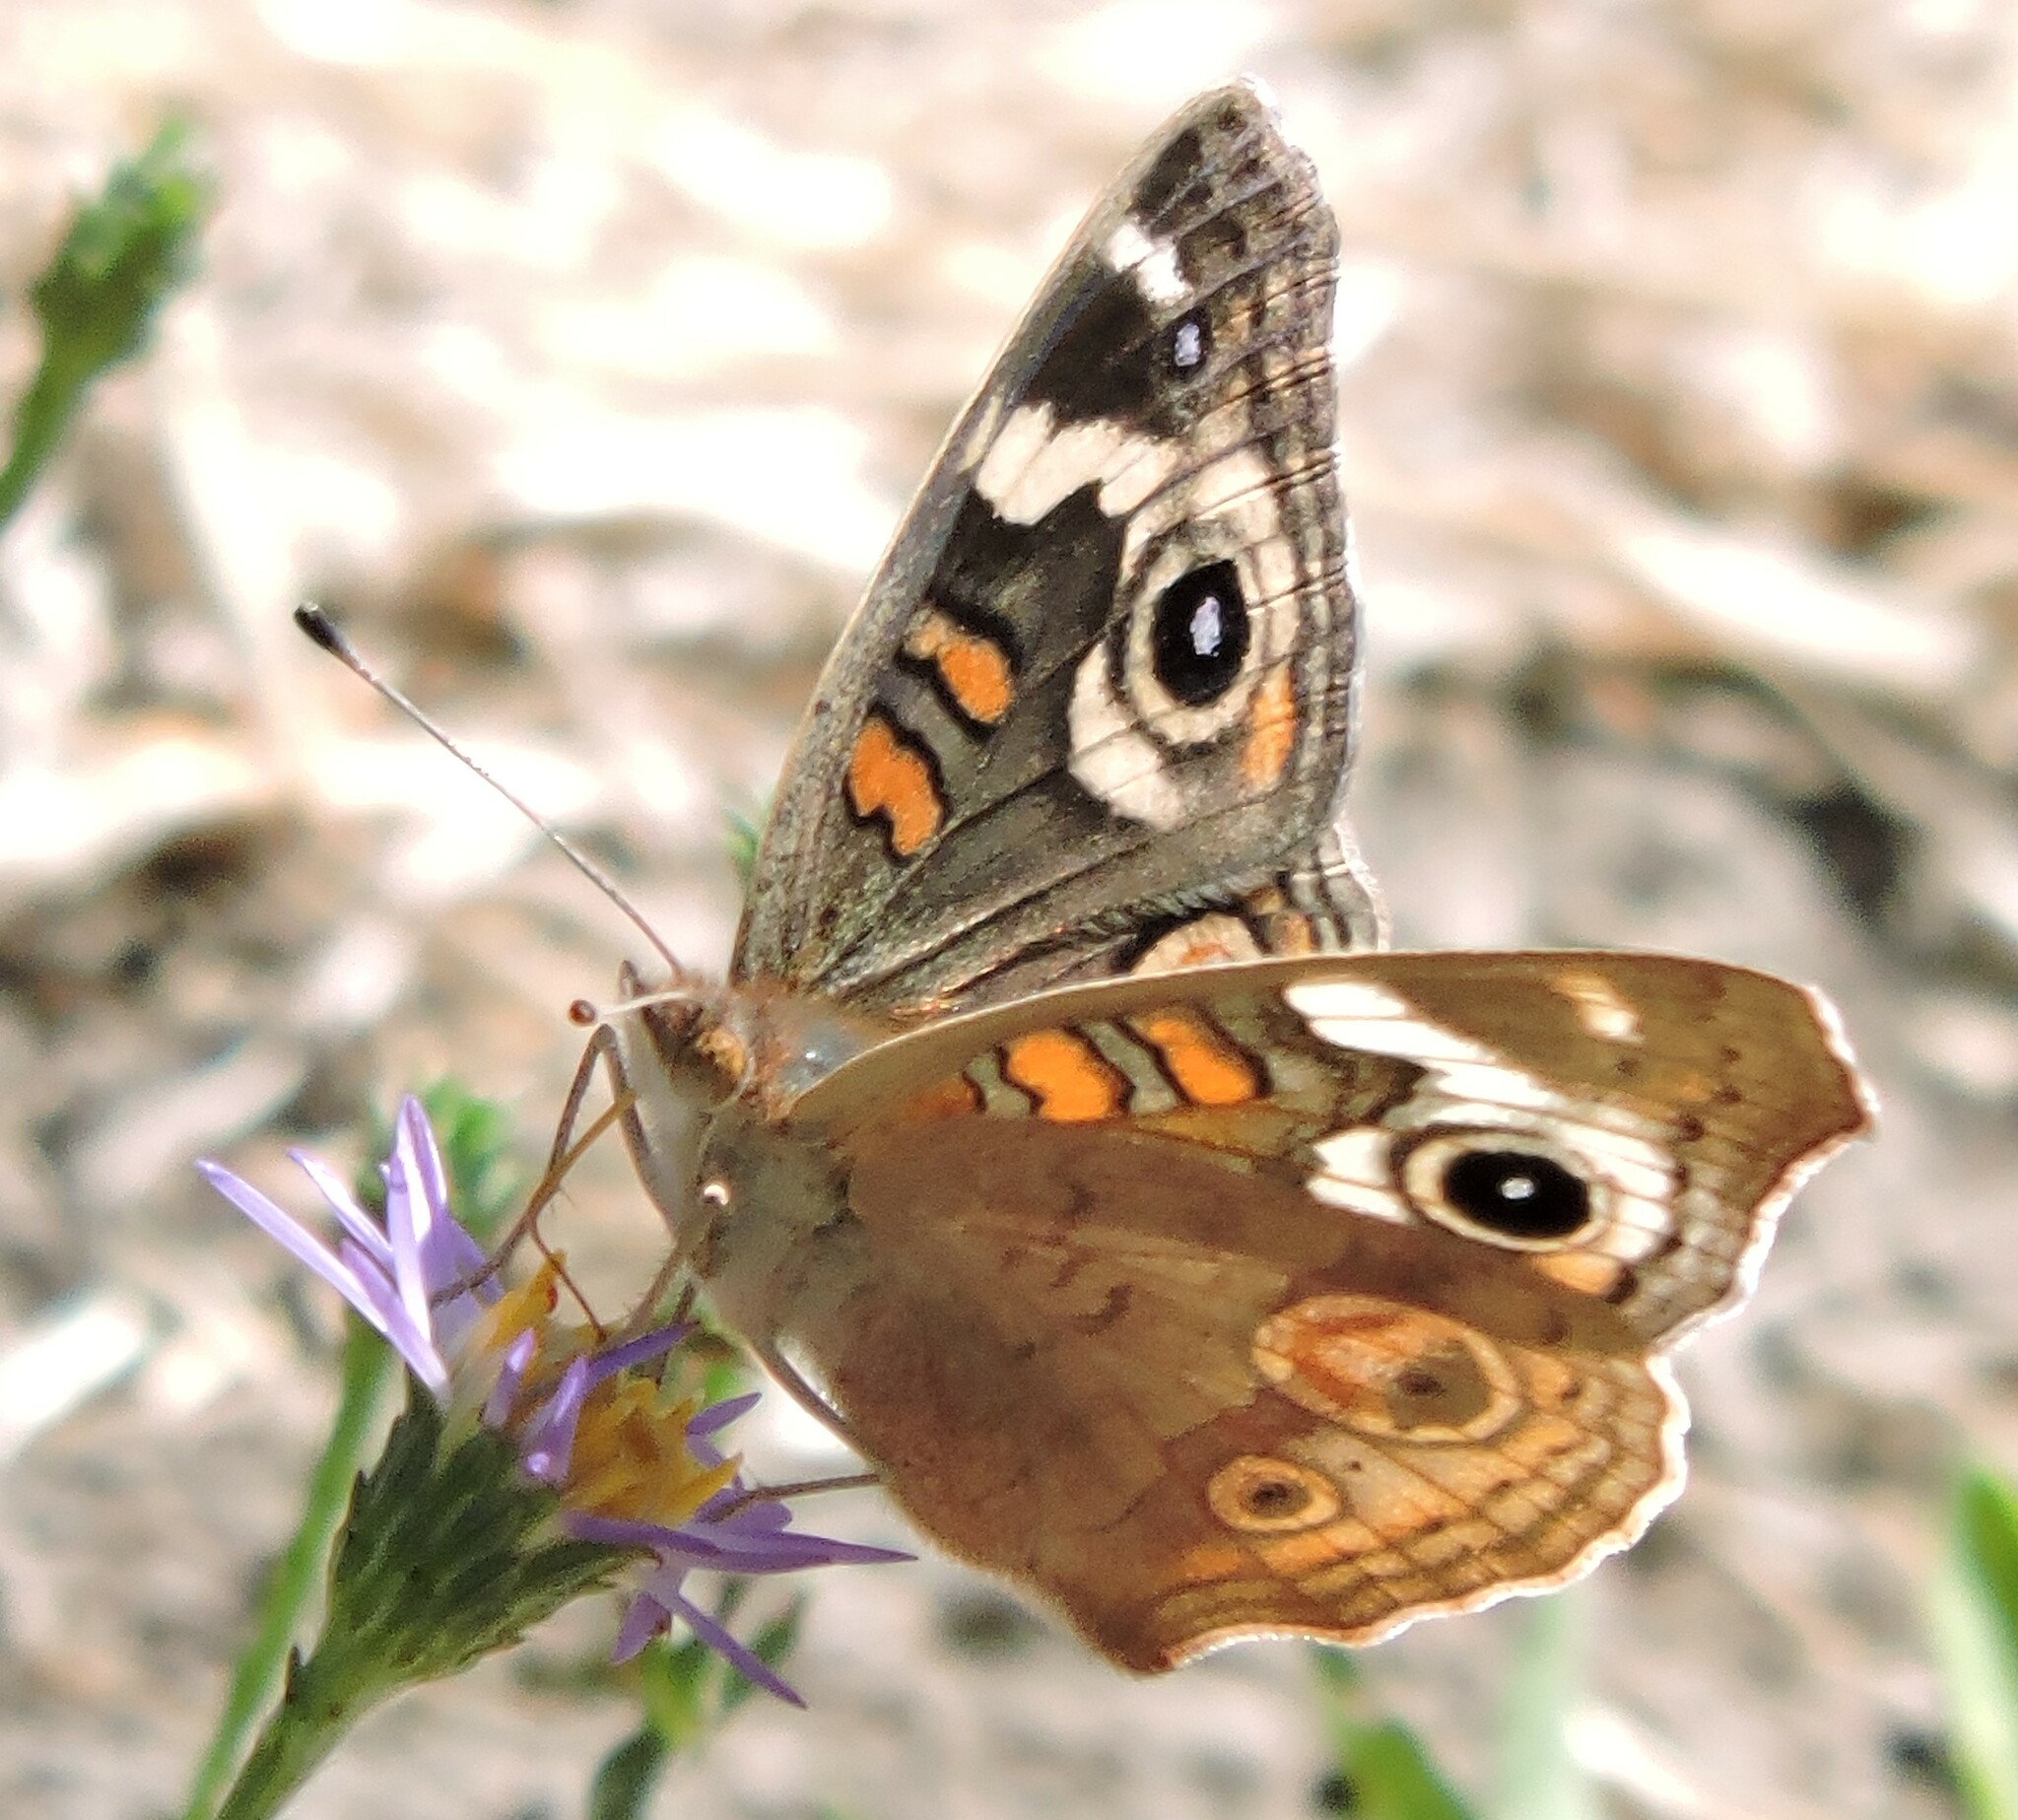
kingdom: Animalia
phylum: Arthropoda
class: Insecta
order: Lepidoptera
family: Nymphalidae
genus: Junonia
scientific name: Junonia grisea
